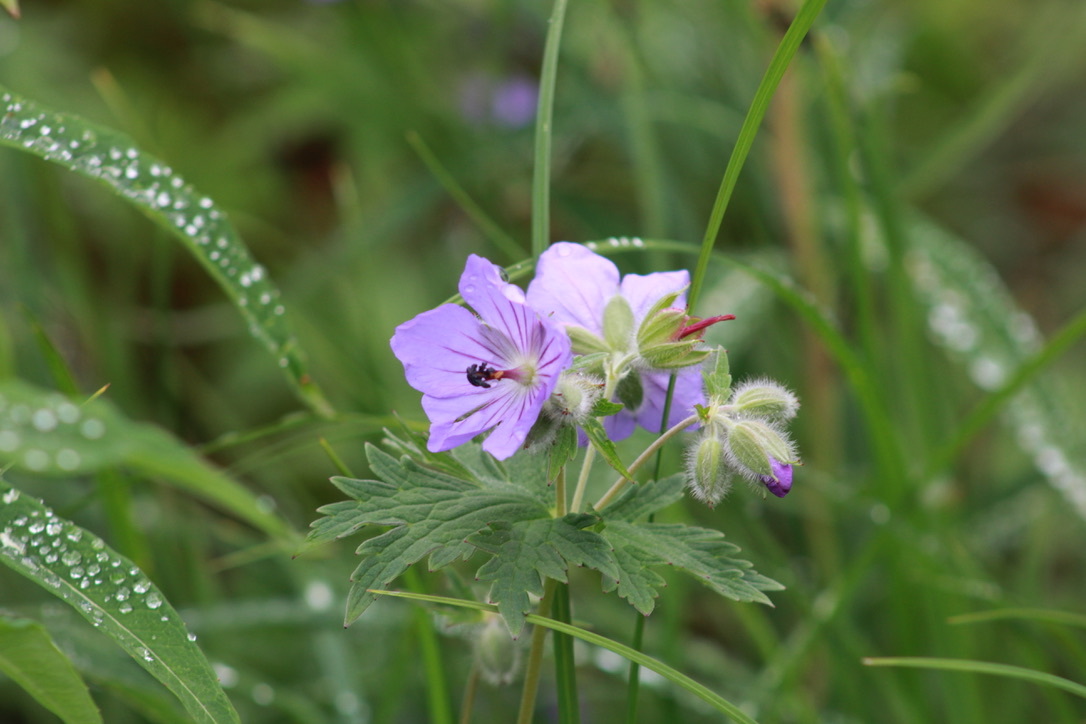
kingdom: Plantae
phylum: Tracheophyta
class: Magnoliopsida
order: Geraniales
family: Geraniaceae
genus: Geranium
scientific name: Geranium erianthum
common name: Northern crane's-bill
